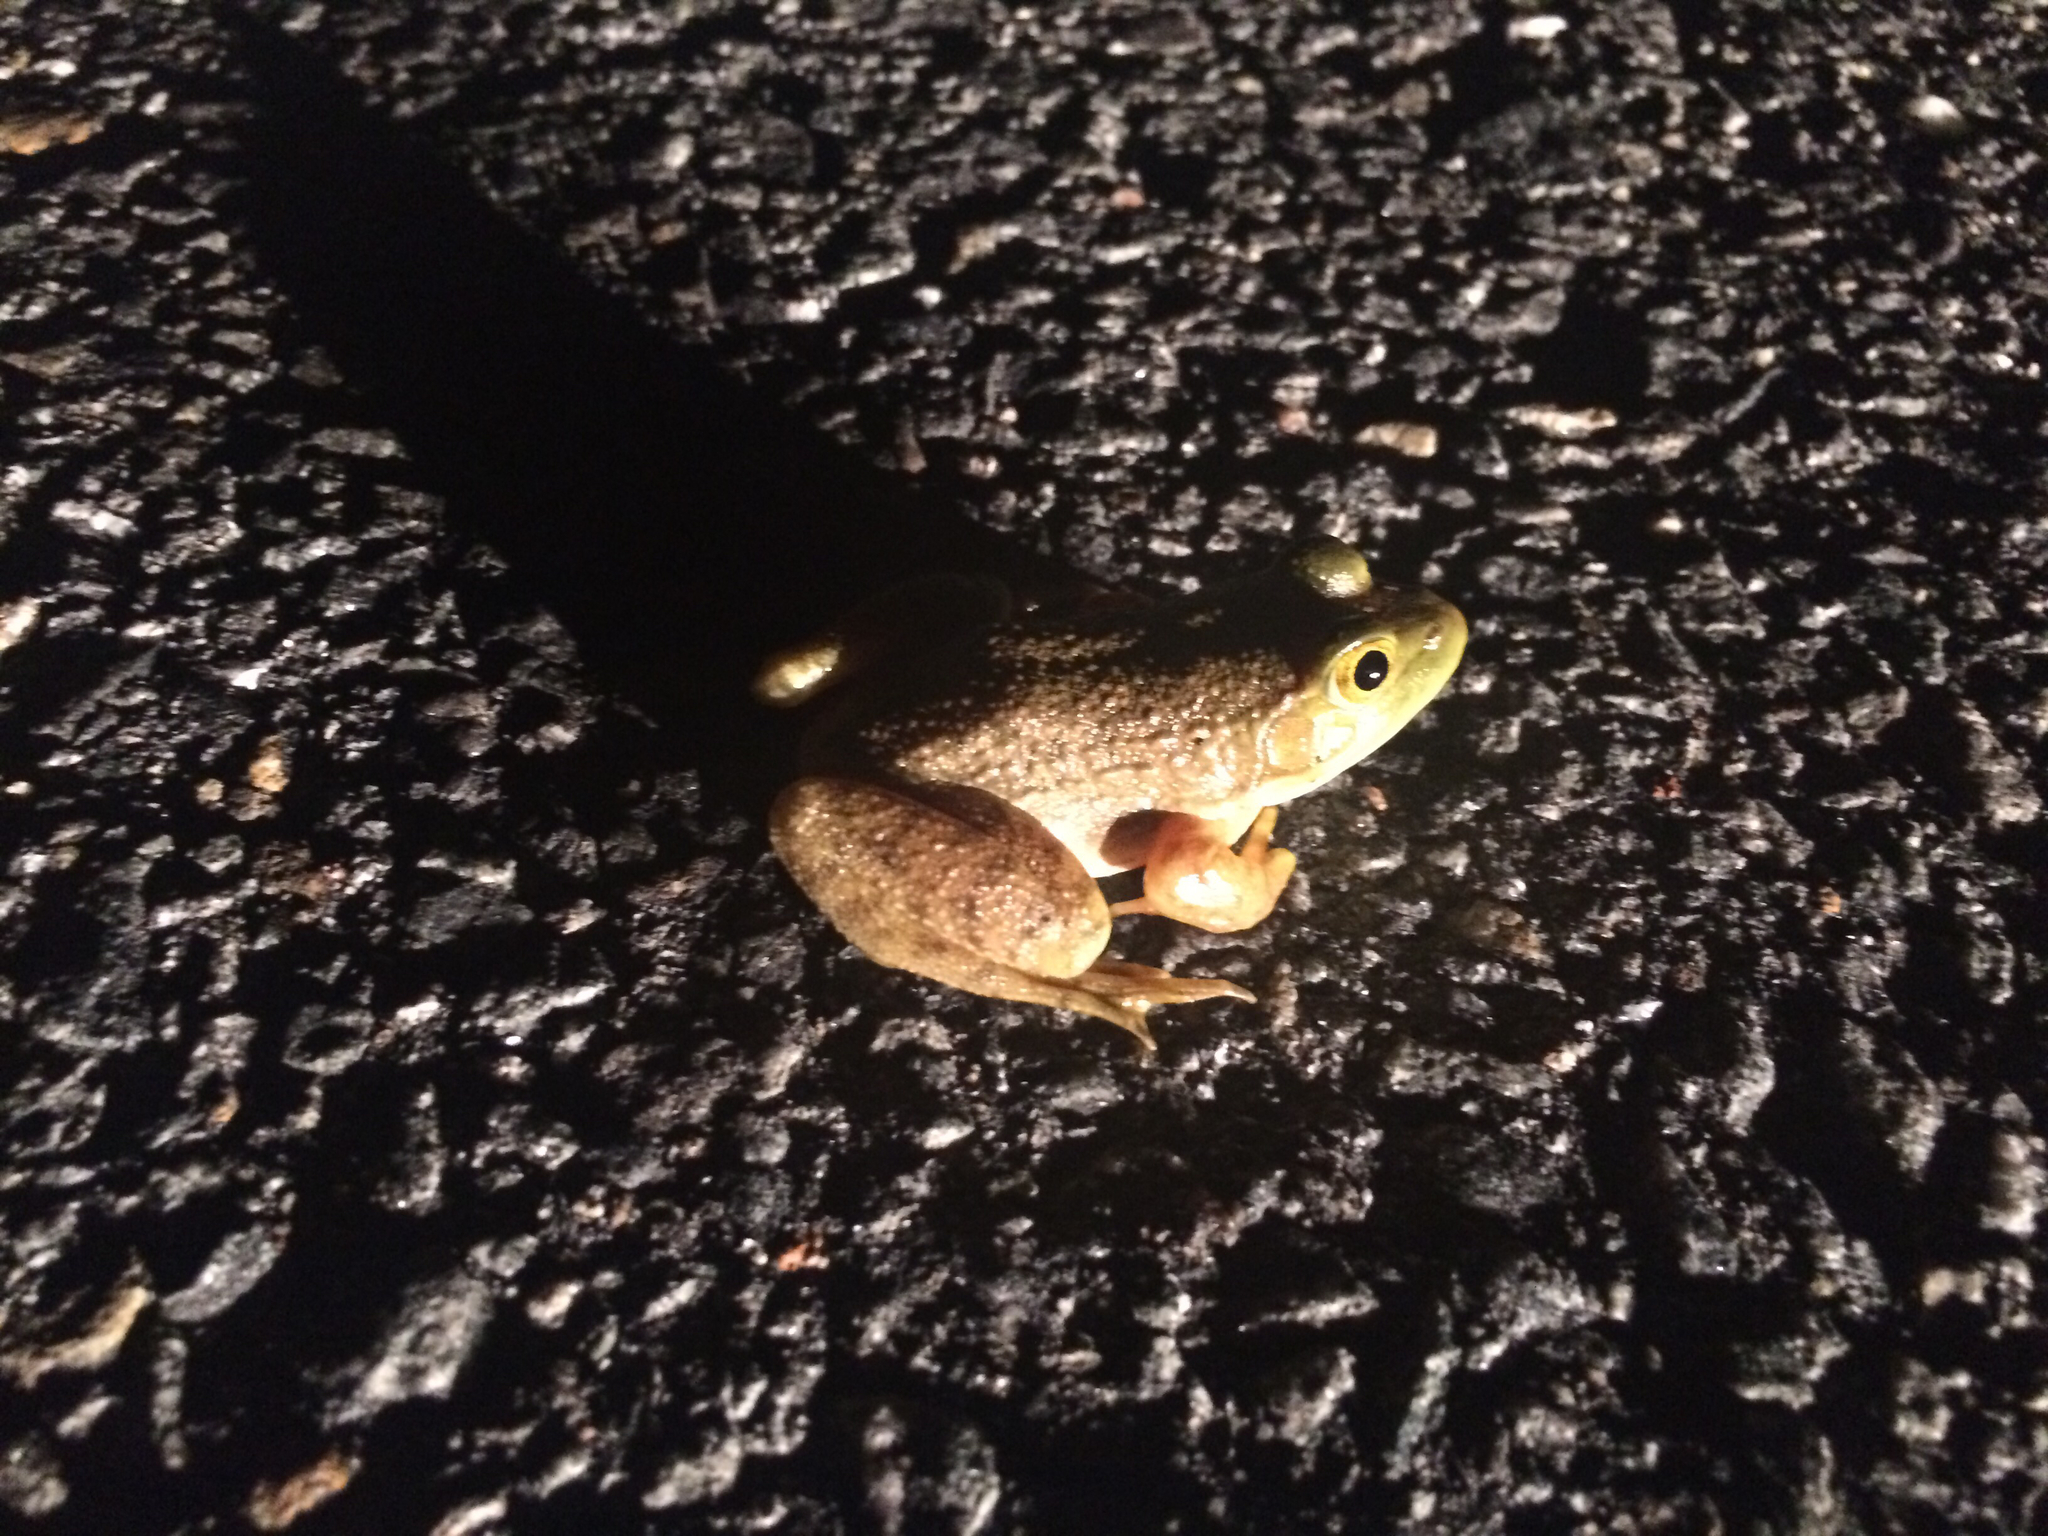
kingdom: Animalia
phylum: Chordata
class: Amphibia
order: Anura
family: Ranidae
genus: Lithobates
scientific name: Lithobates catesbeianus
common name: American bullfrog
